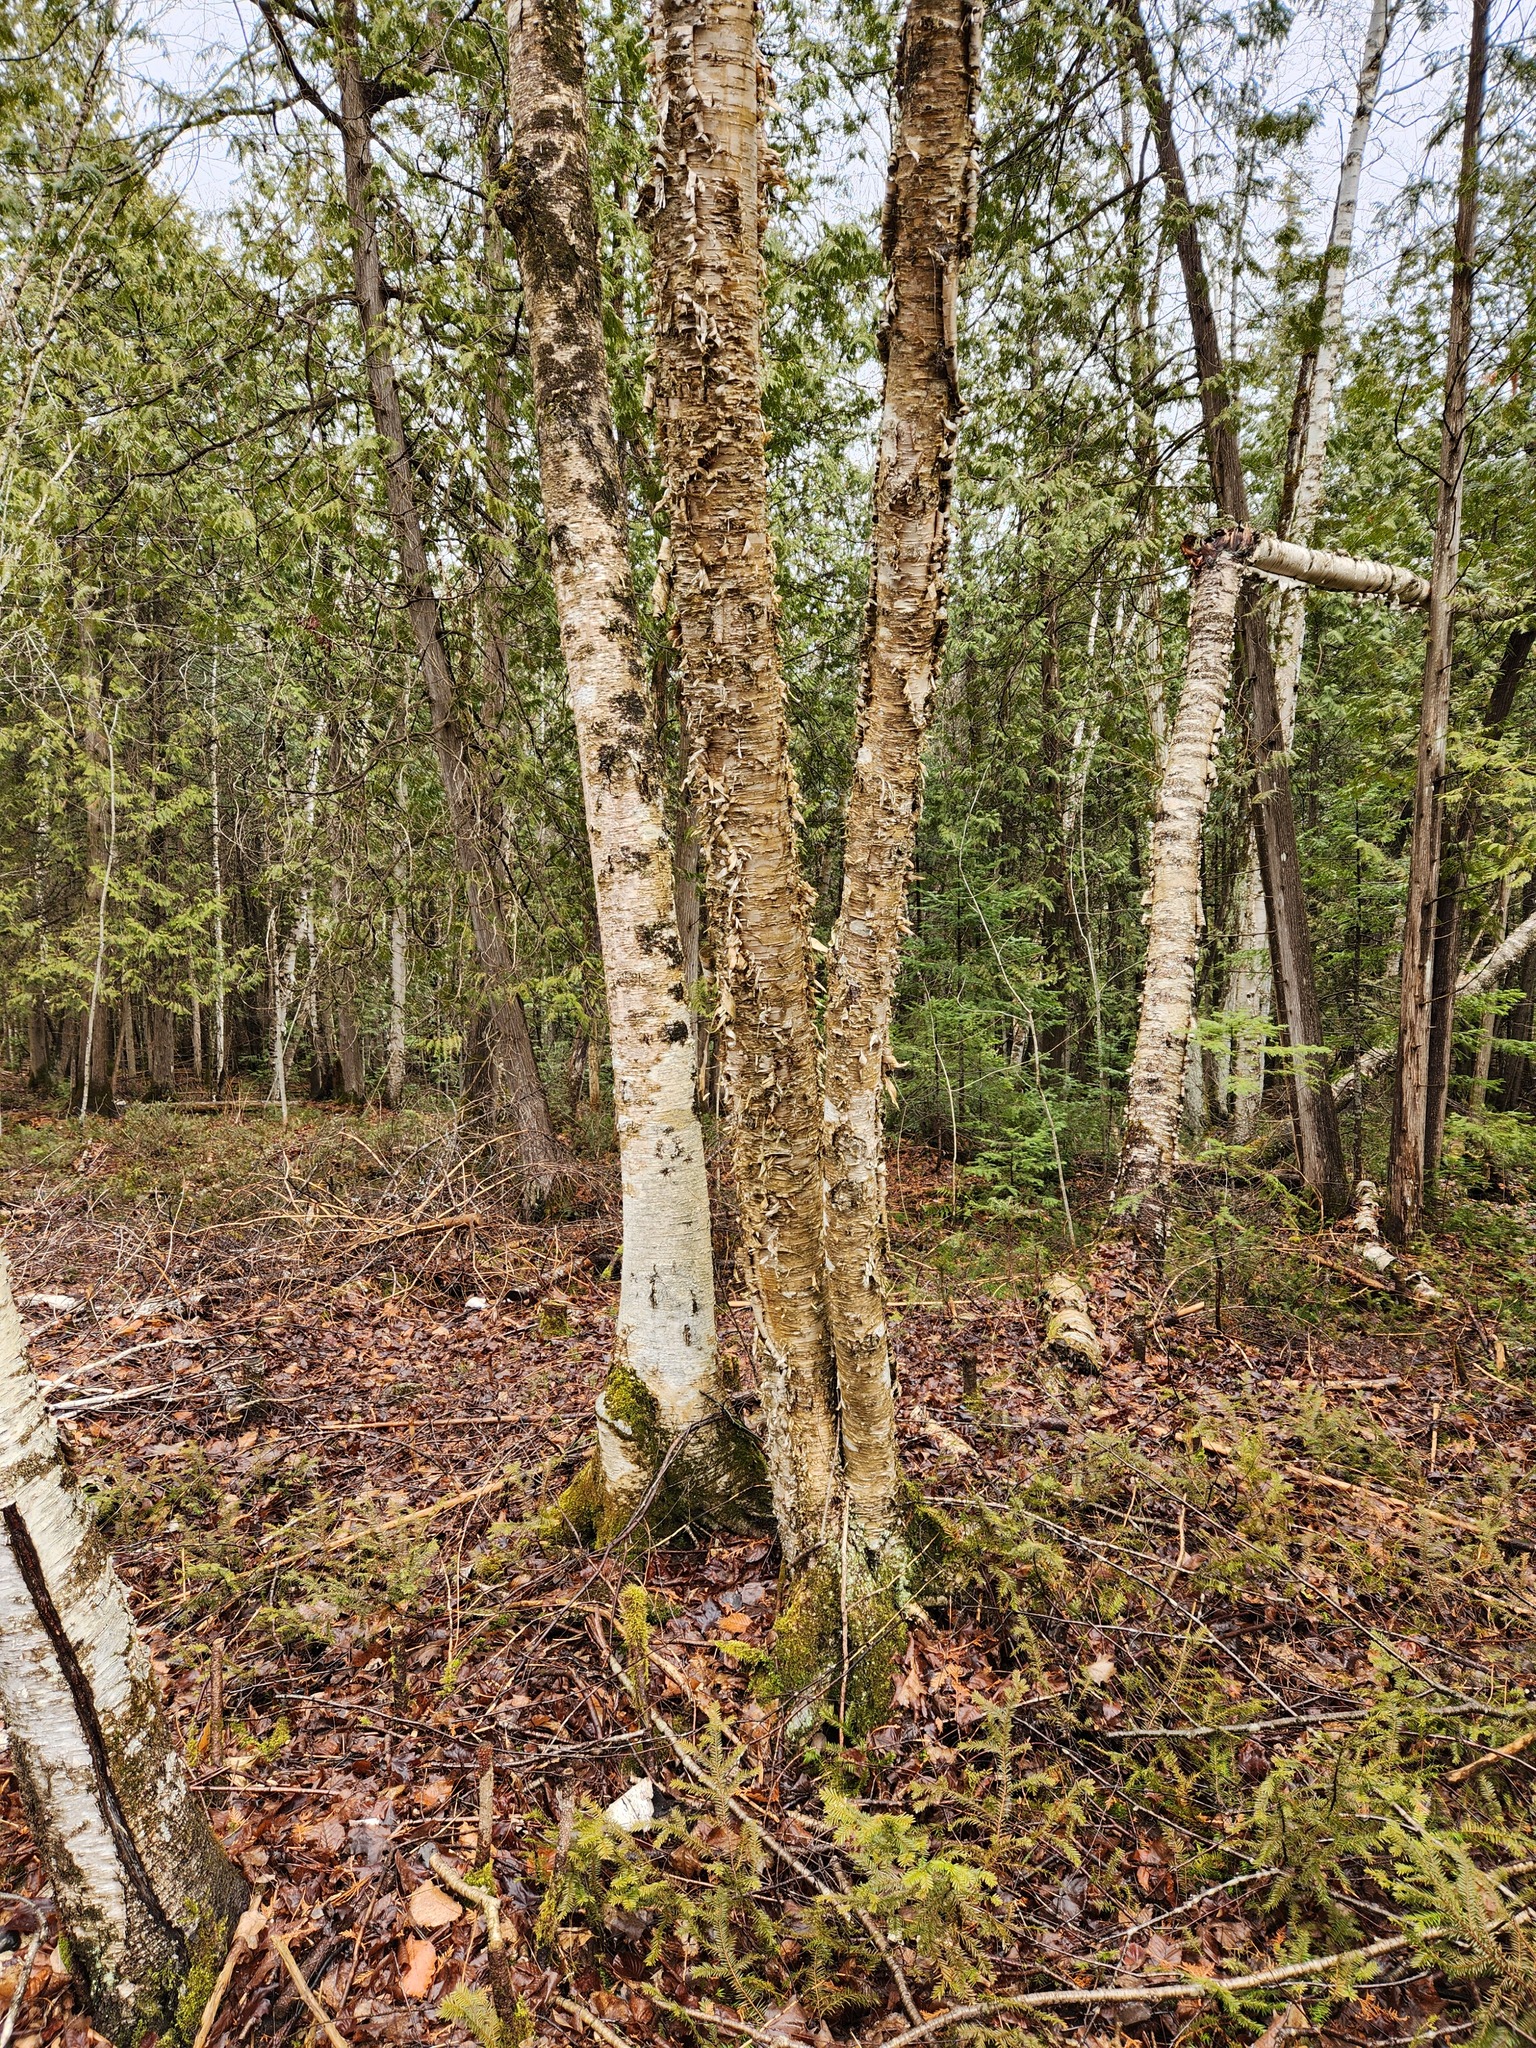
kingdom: Plantae
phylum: Tracheophyta
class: Magnoliopsida
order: Fagales
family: Betulaceae
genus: Betula
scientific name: Betula alleghaniensis
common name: Yellow birch
